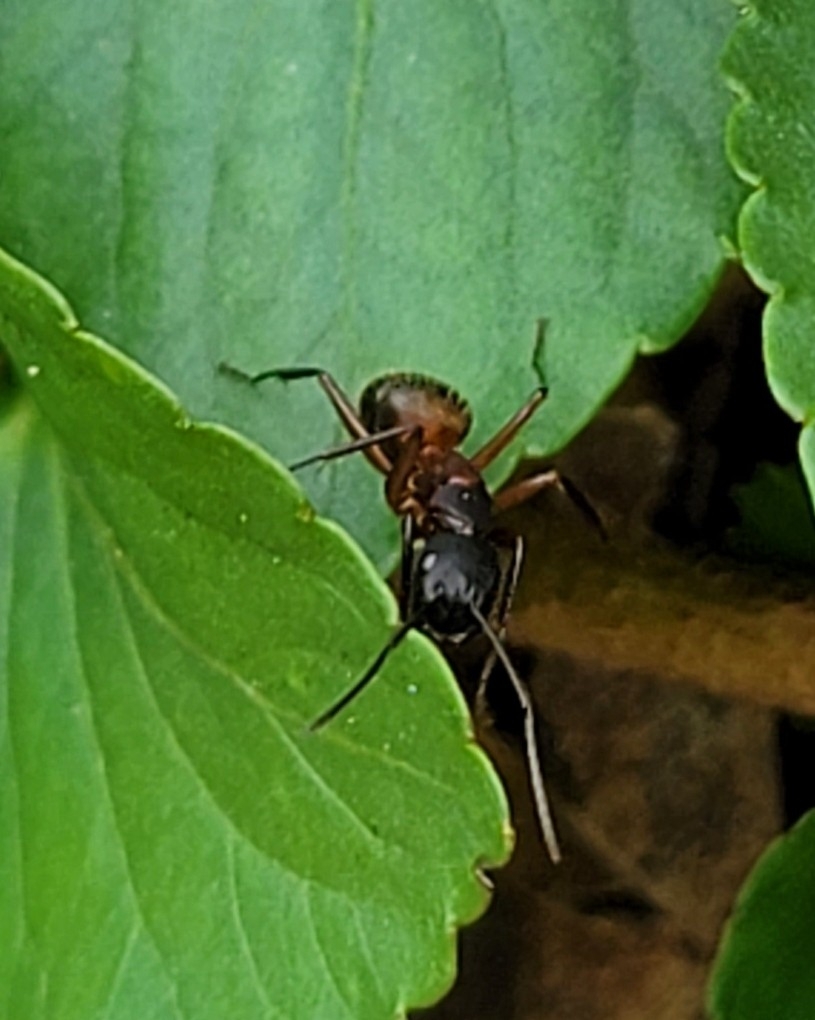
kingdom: Animalia
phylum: Arthropoda
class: Insecta
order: Hymenoptera
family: Formicidae
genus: Camponotus
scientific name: Camponotus chromaiodes
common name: Red carpenter ant
